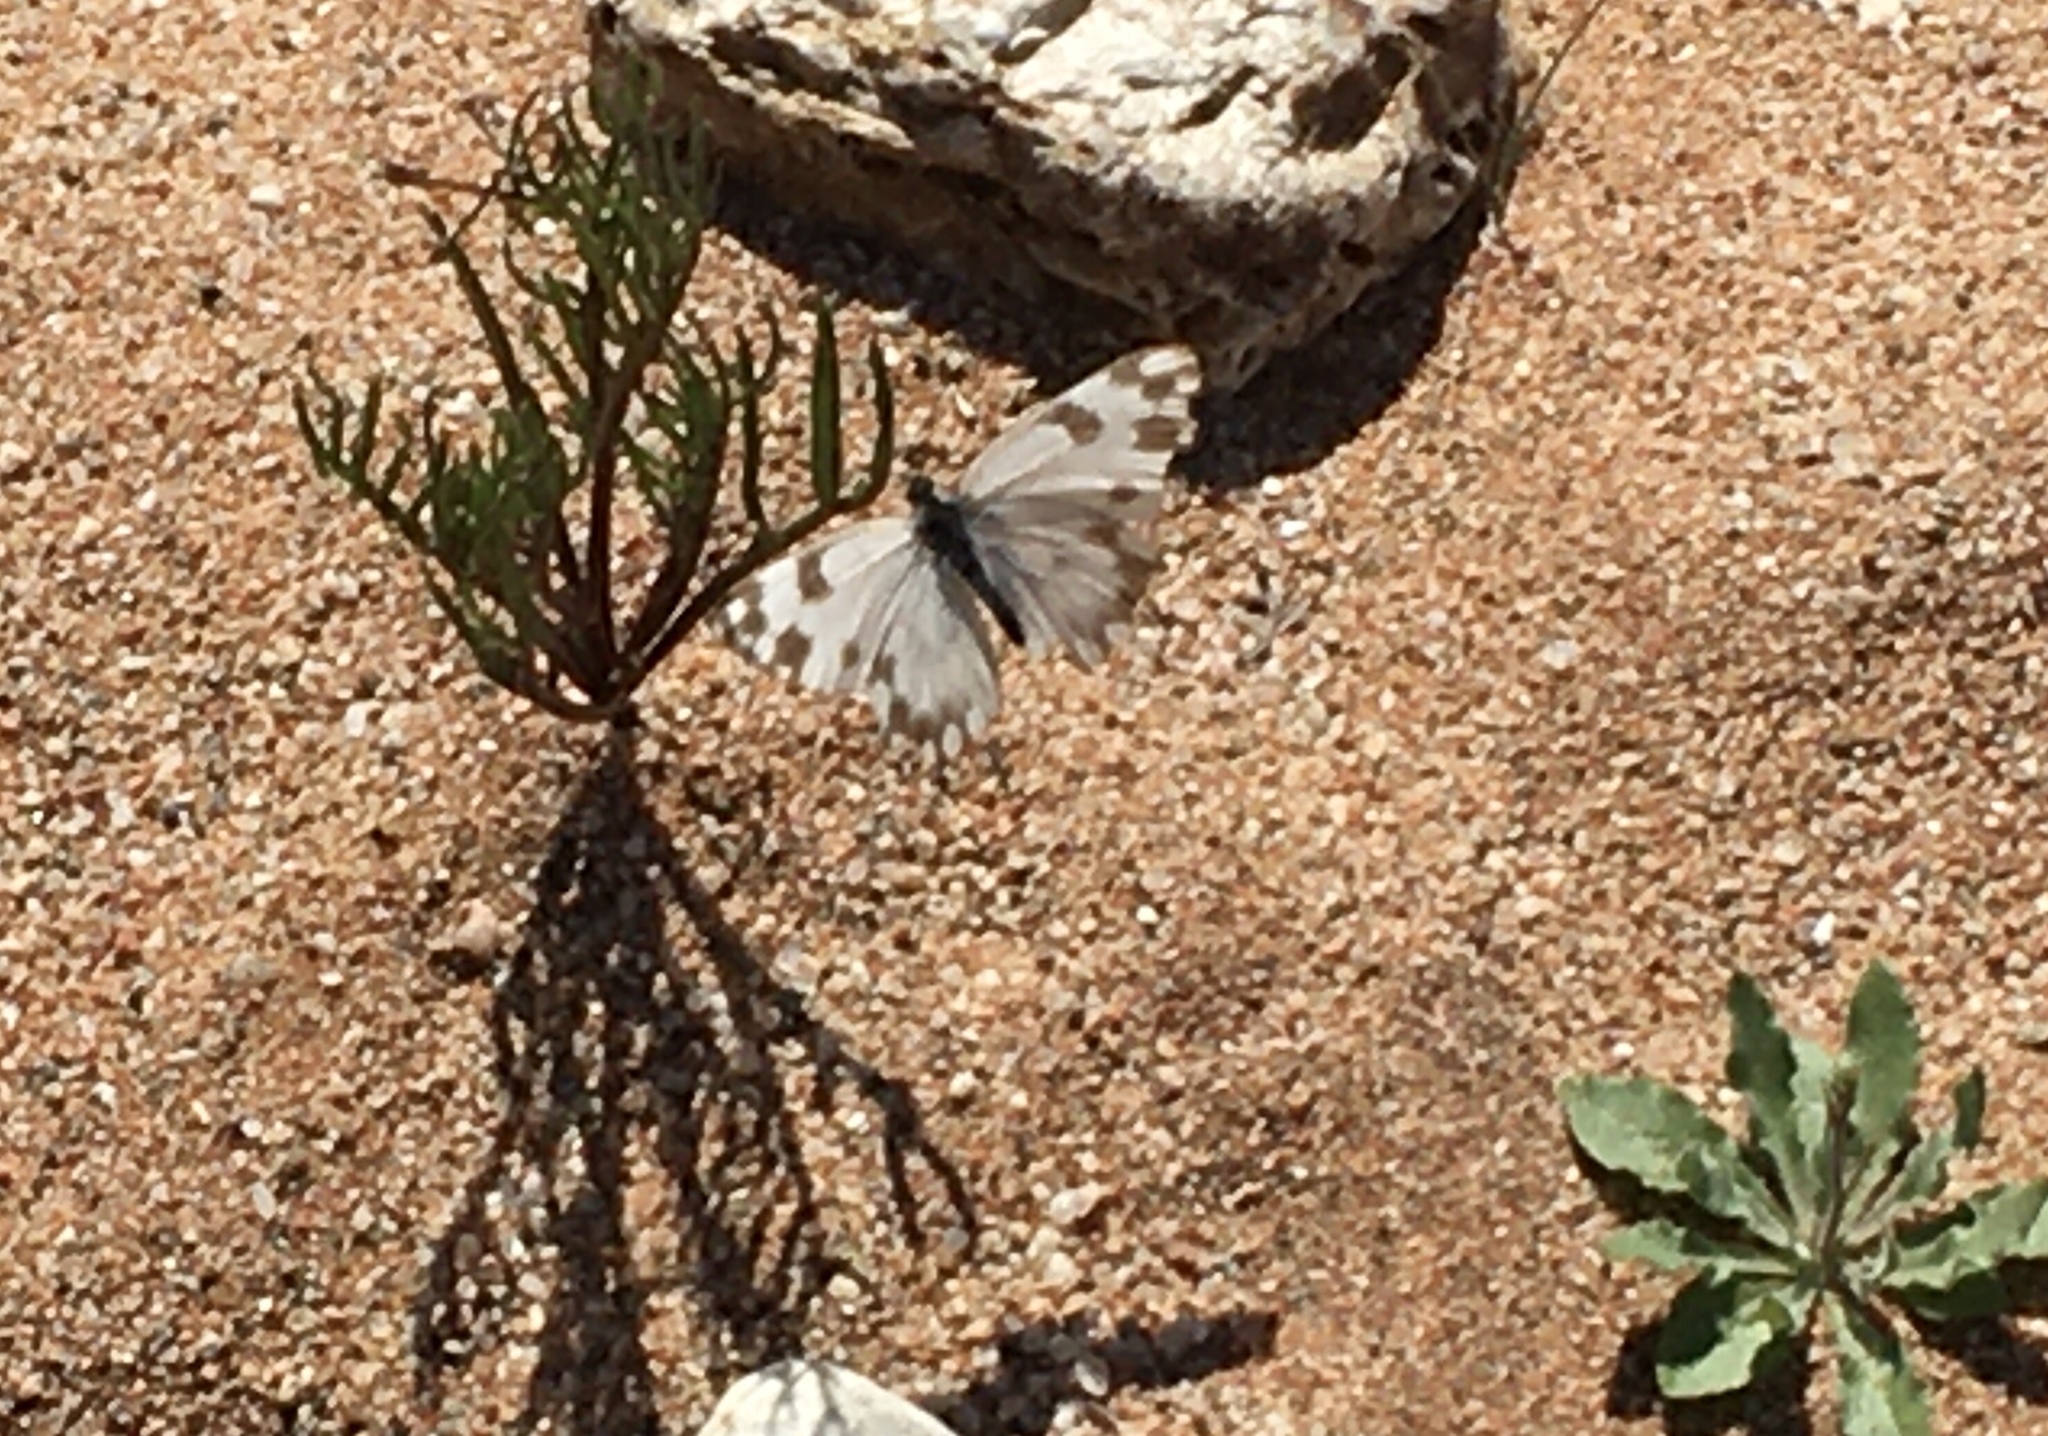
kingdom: Animalia
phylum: Arthropoda
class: Insecta
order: Lepidoptera
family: Pieridae
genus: Pontia
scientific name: Pontia helice
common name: Meadow white
